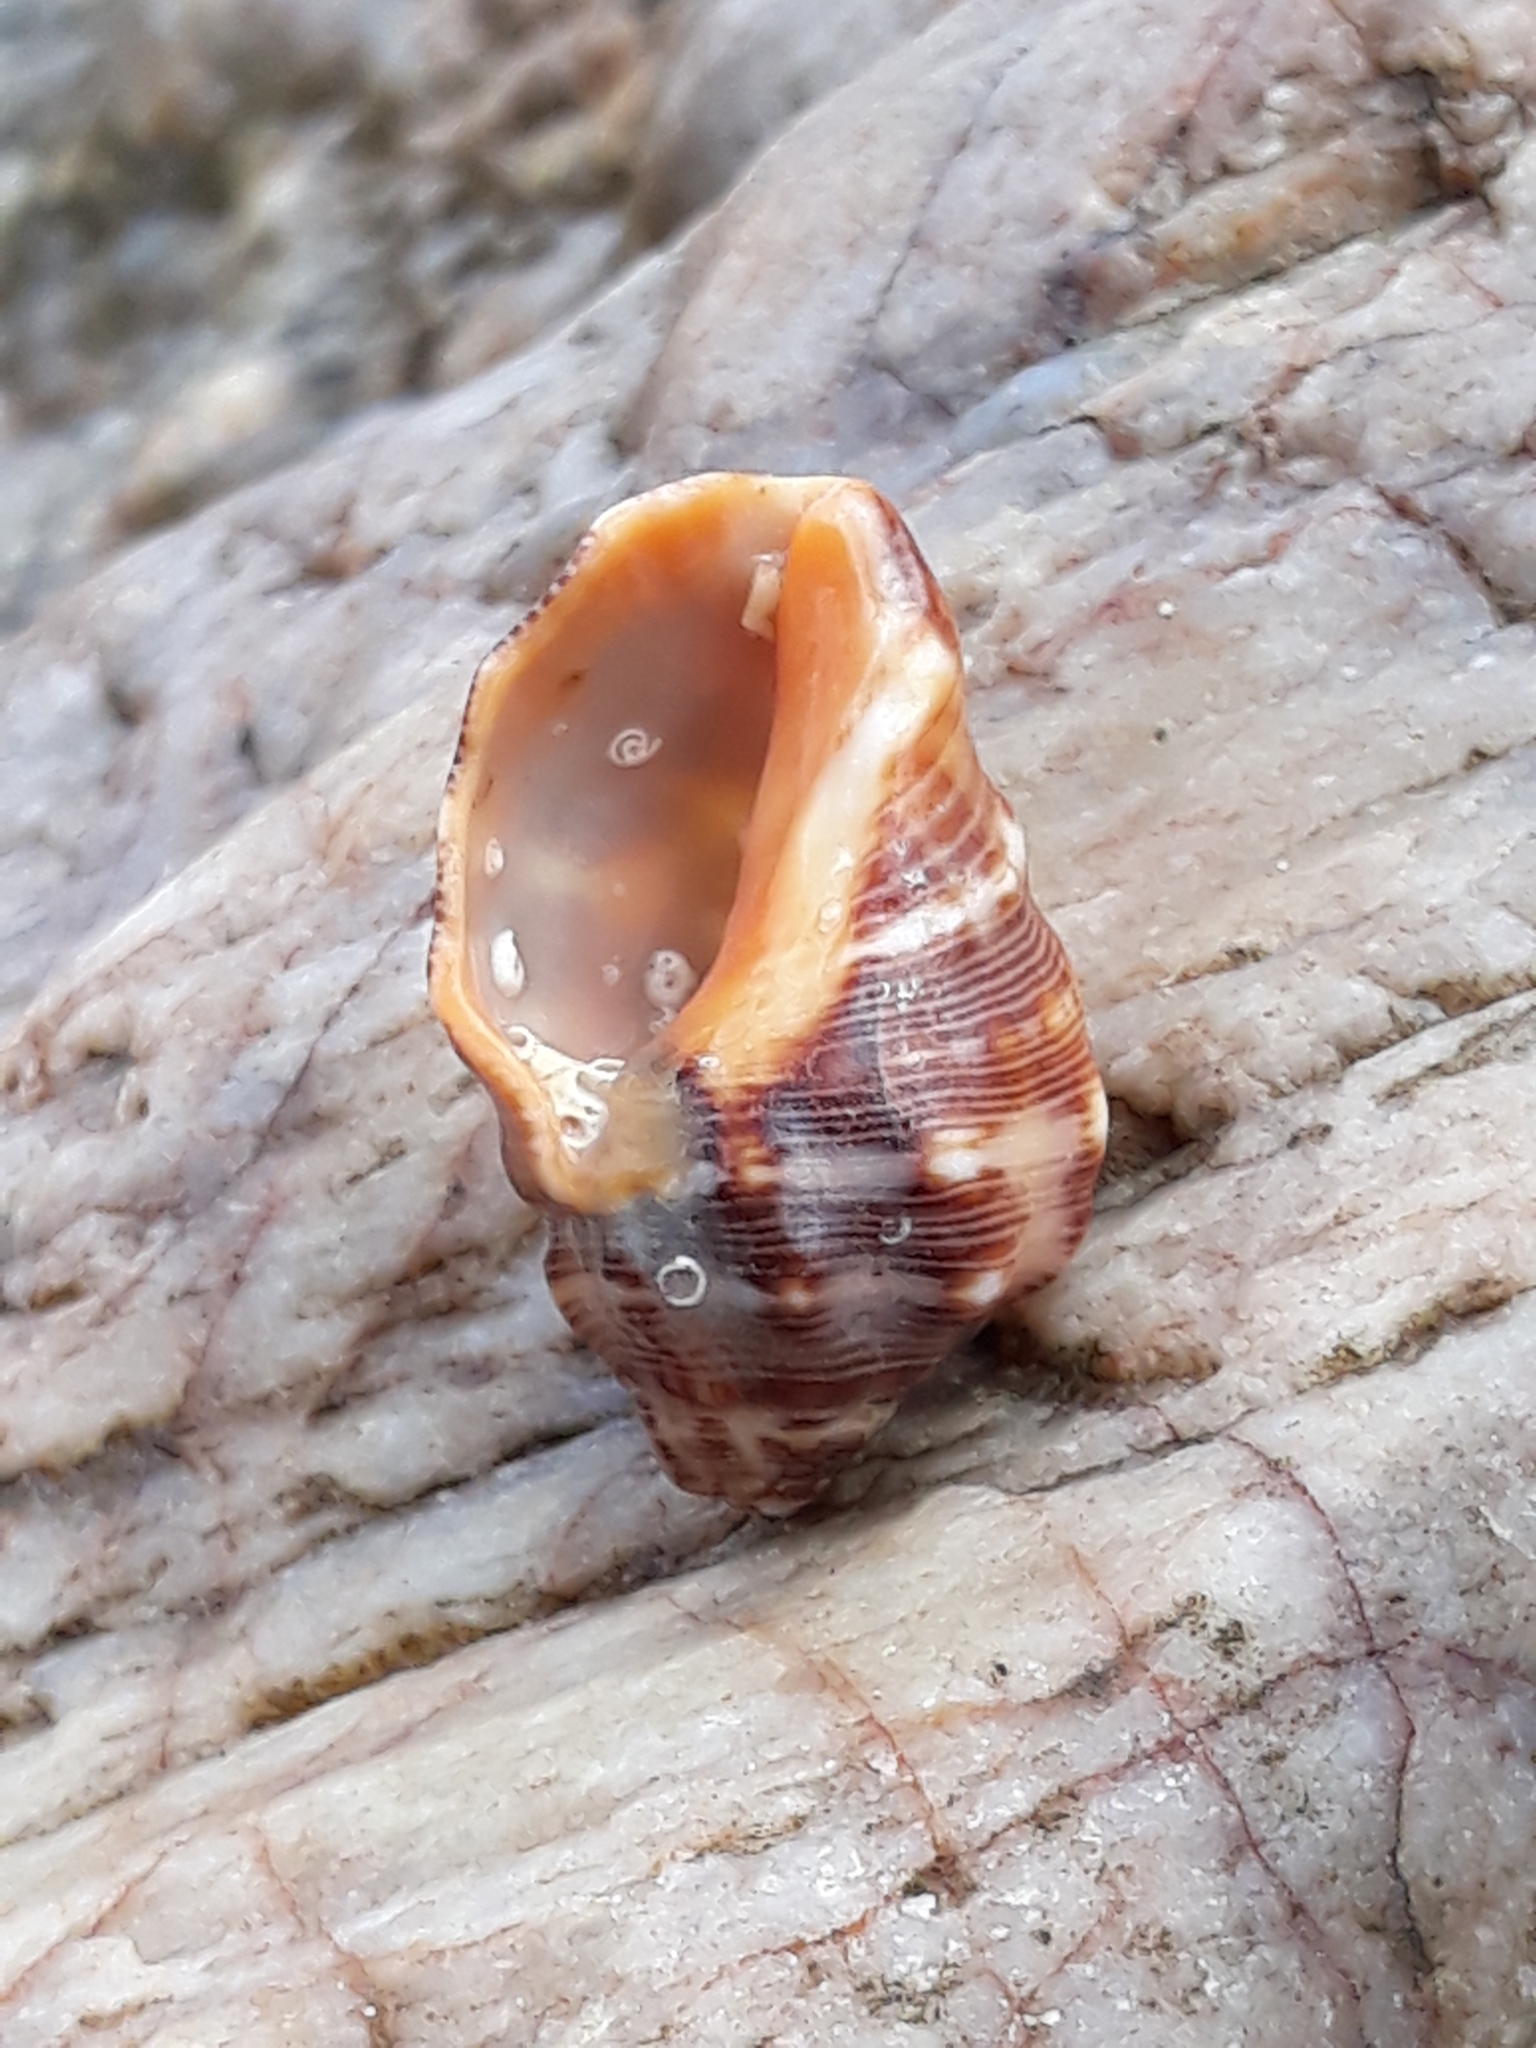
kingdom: Animalia
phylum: Mollusca
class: Gastropoda
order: Neogastropoda
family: Muricidae
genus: Stramonita
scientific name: Stramonita haemastoma
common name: Florida dog winkle
